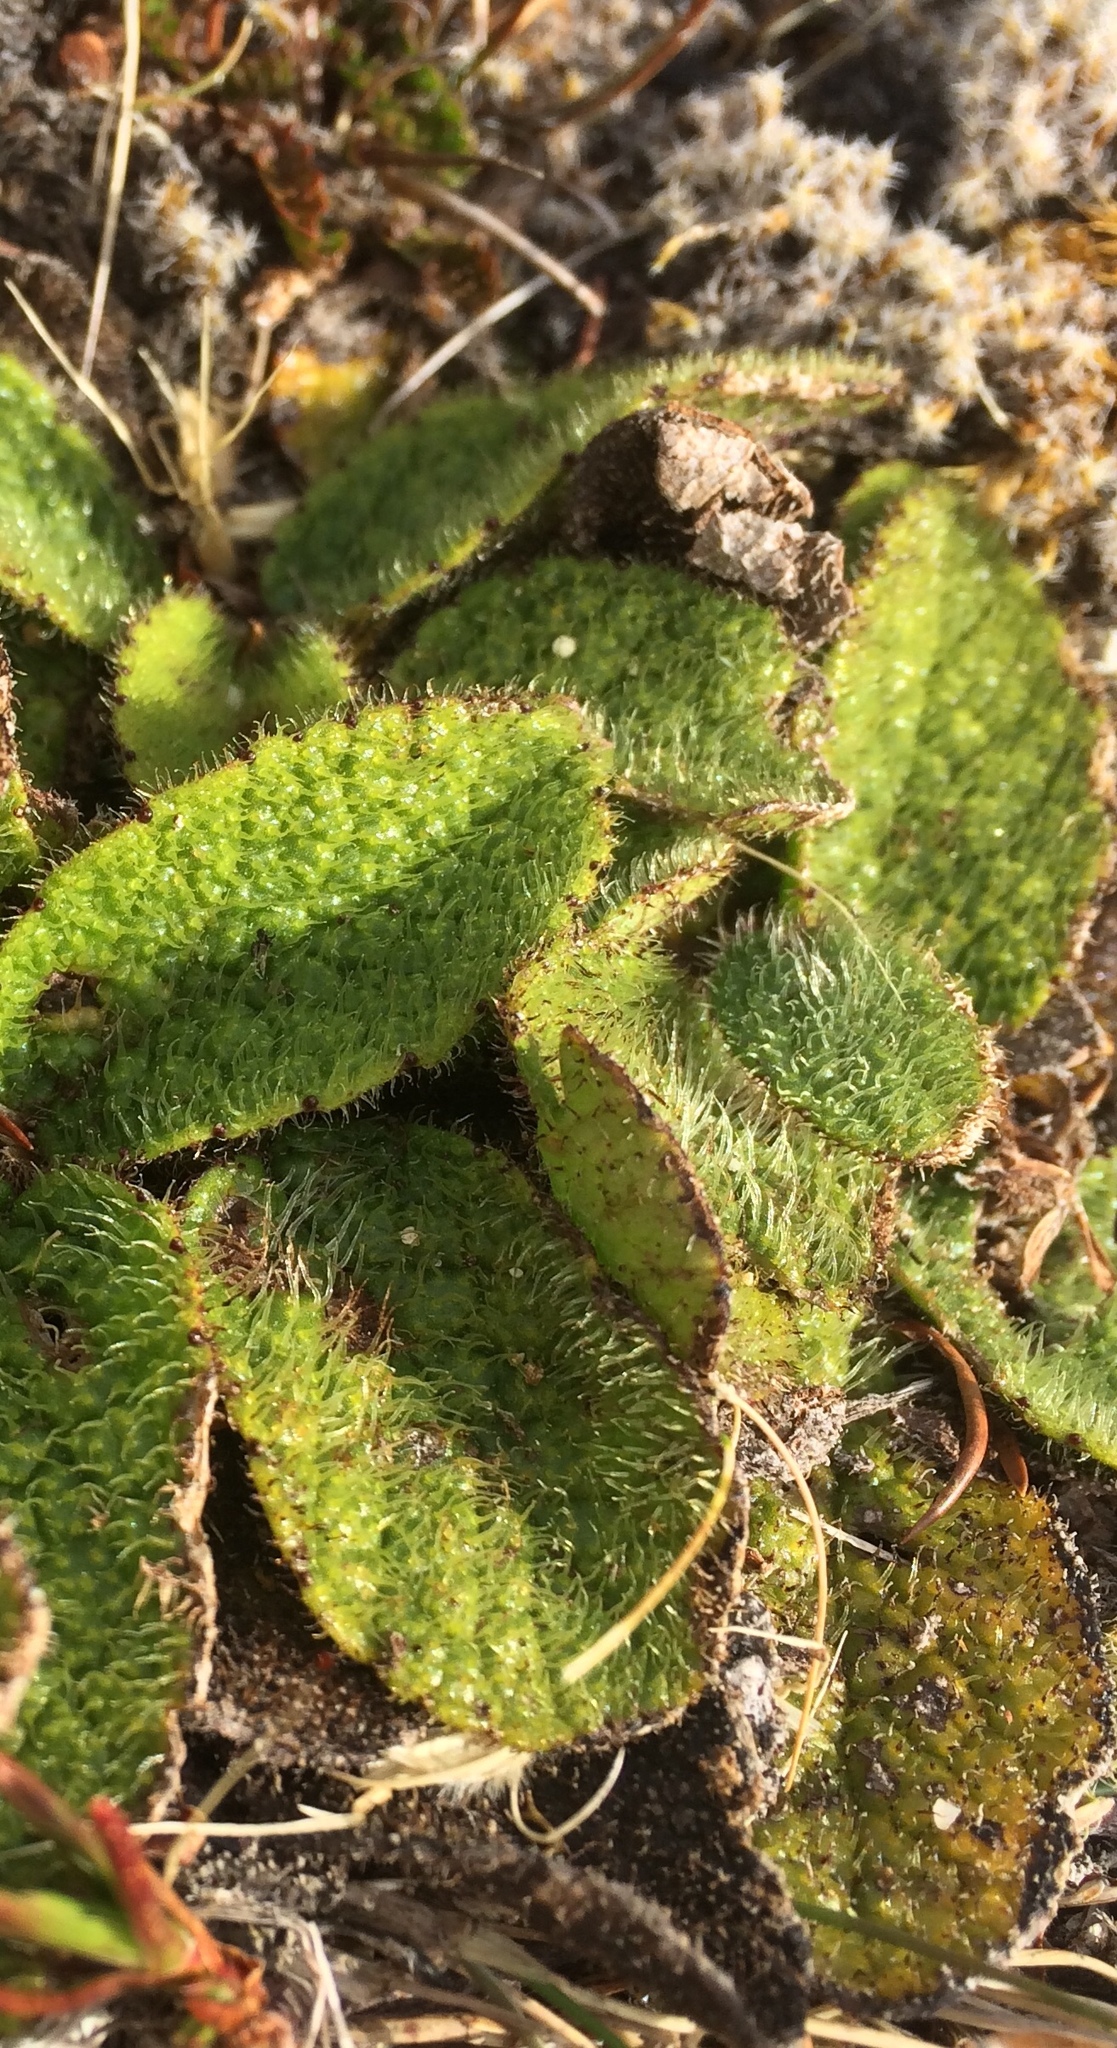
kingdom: Plantae
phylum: Tracheophyta
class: Magnoliopsida
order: Asterales
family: Asteraceae
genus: Brachyglottis
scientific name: Brachyglottis bellidioides
